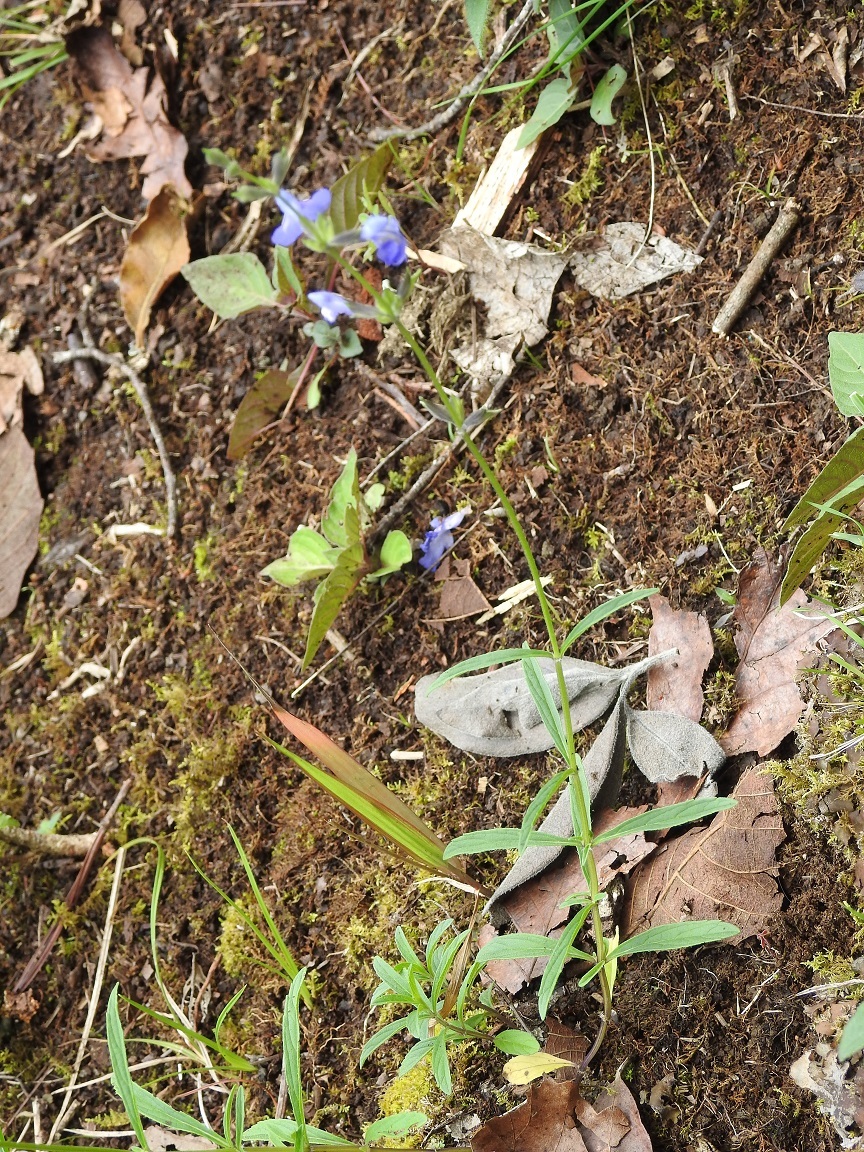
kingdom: Plantae
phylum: Tracheophyta
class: Magnoliopsida
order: Lamiales
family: Lamiaceae
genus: Salvia
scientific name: Salvia oblongifolia
